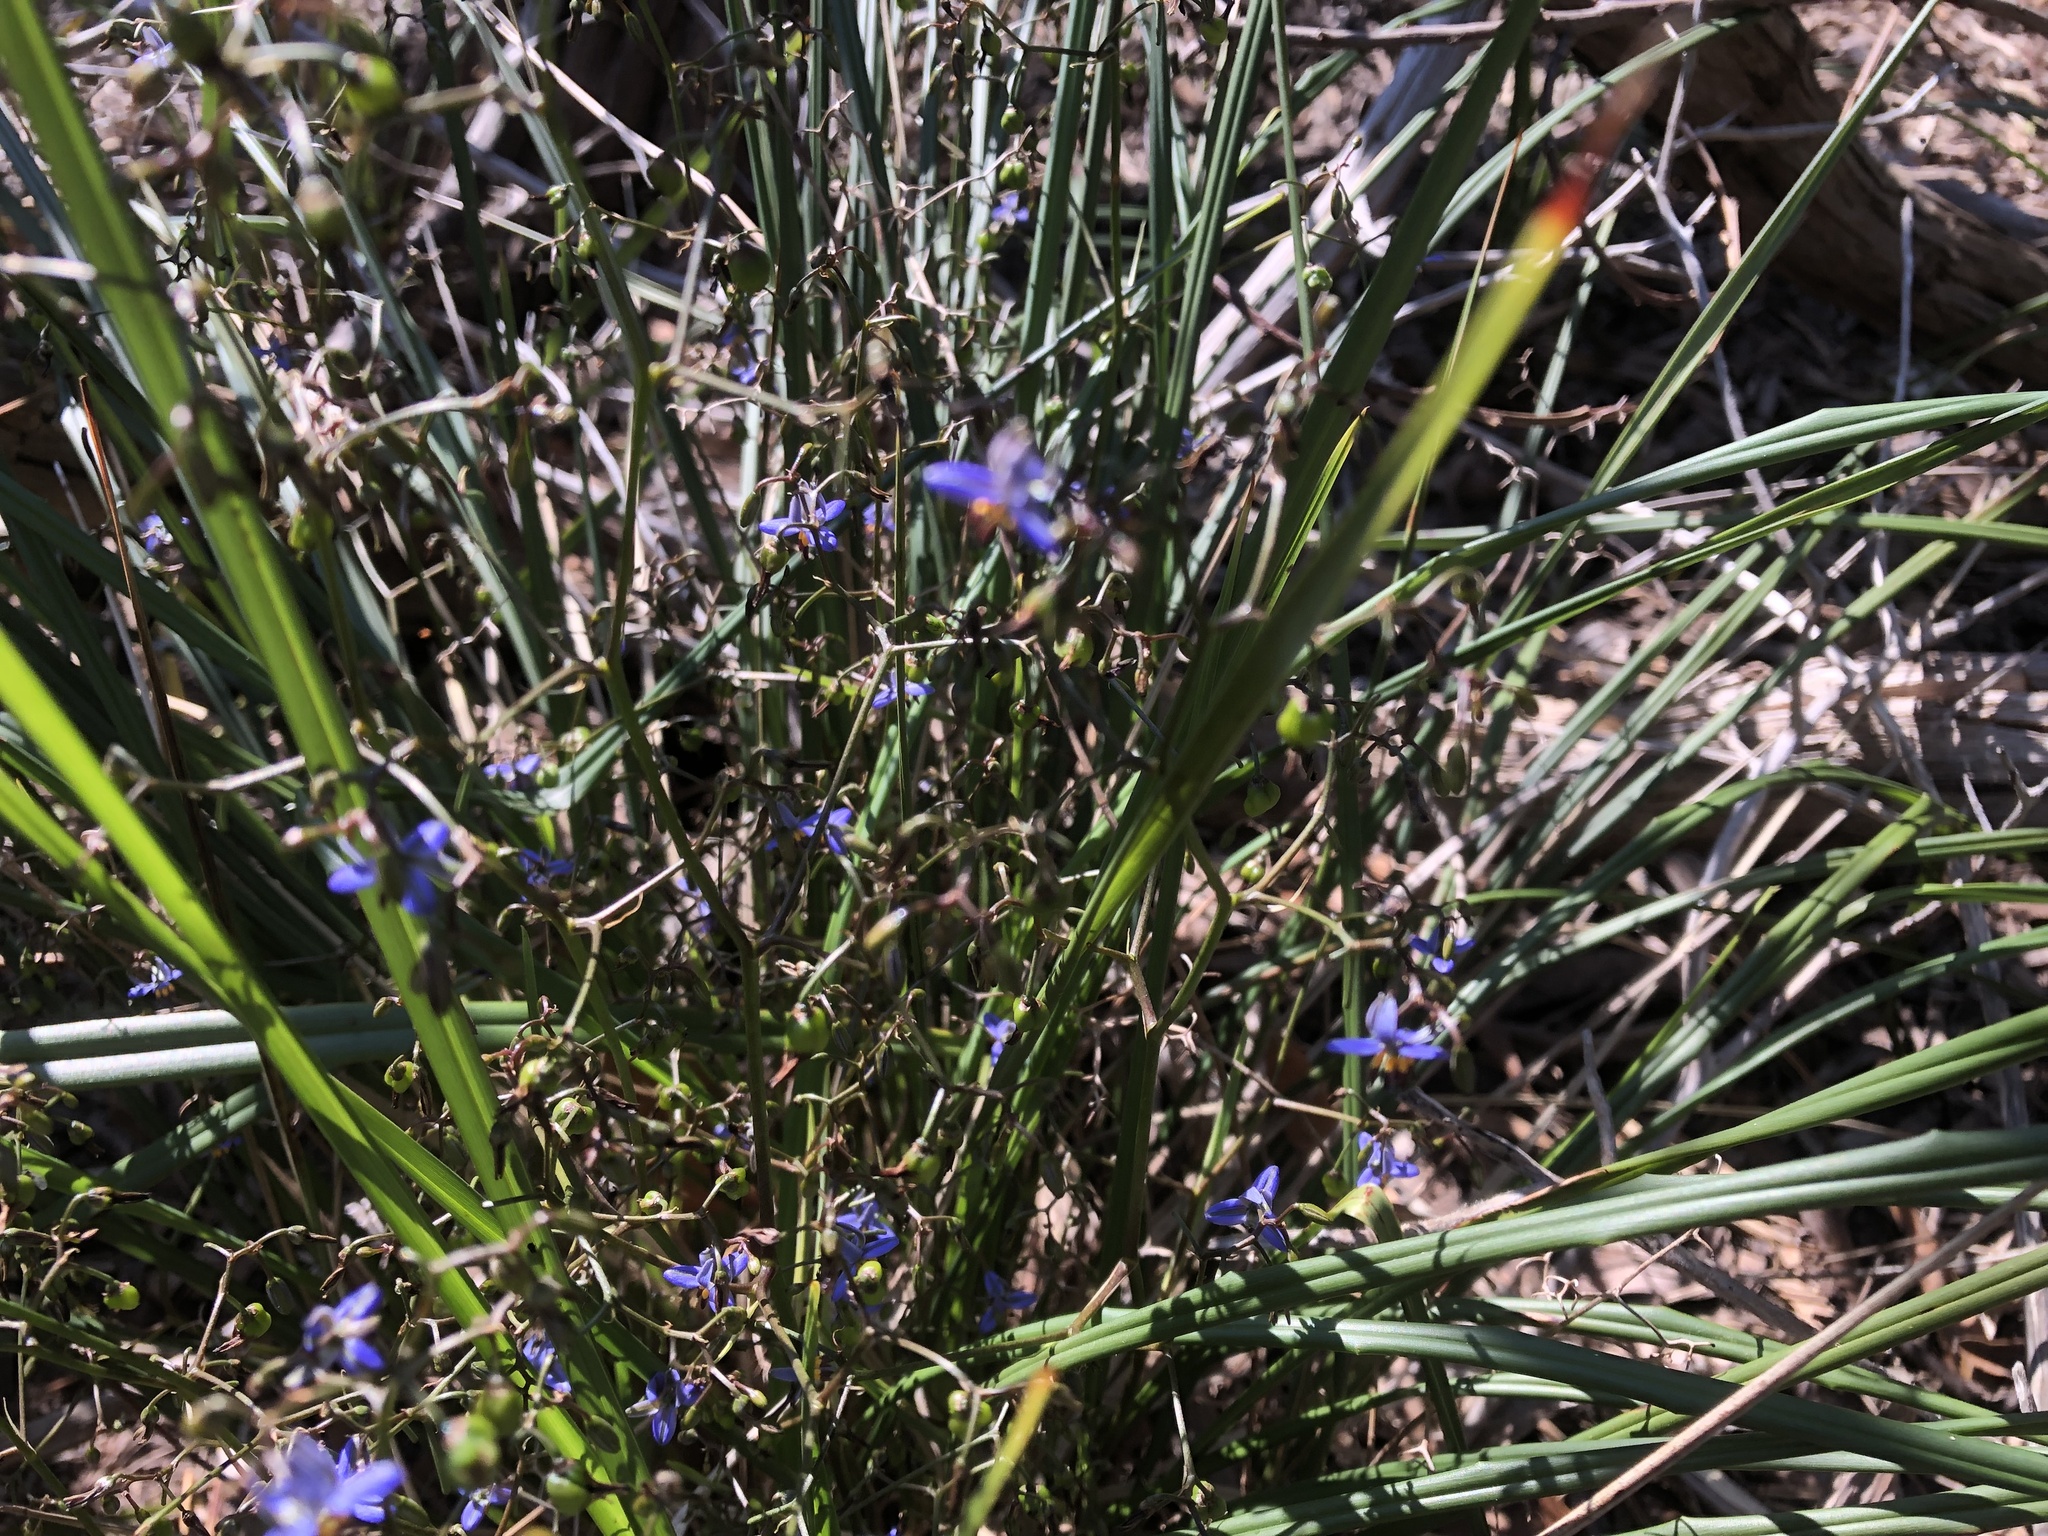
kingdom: Plantae
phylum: Tracheophyta
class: Liliopsida
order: Asparagales
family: Asphodelaceae
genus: Dianella
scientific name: Dianella brevicaulis
